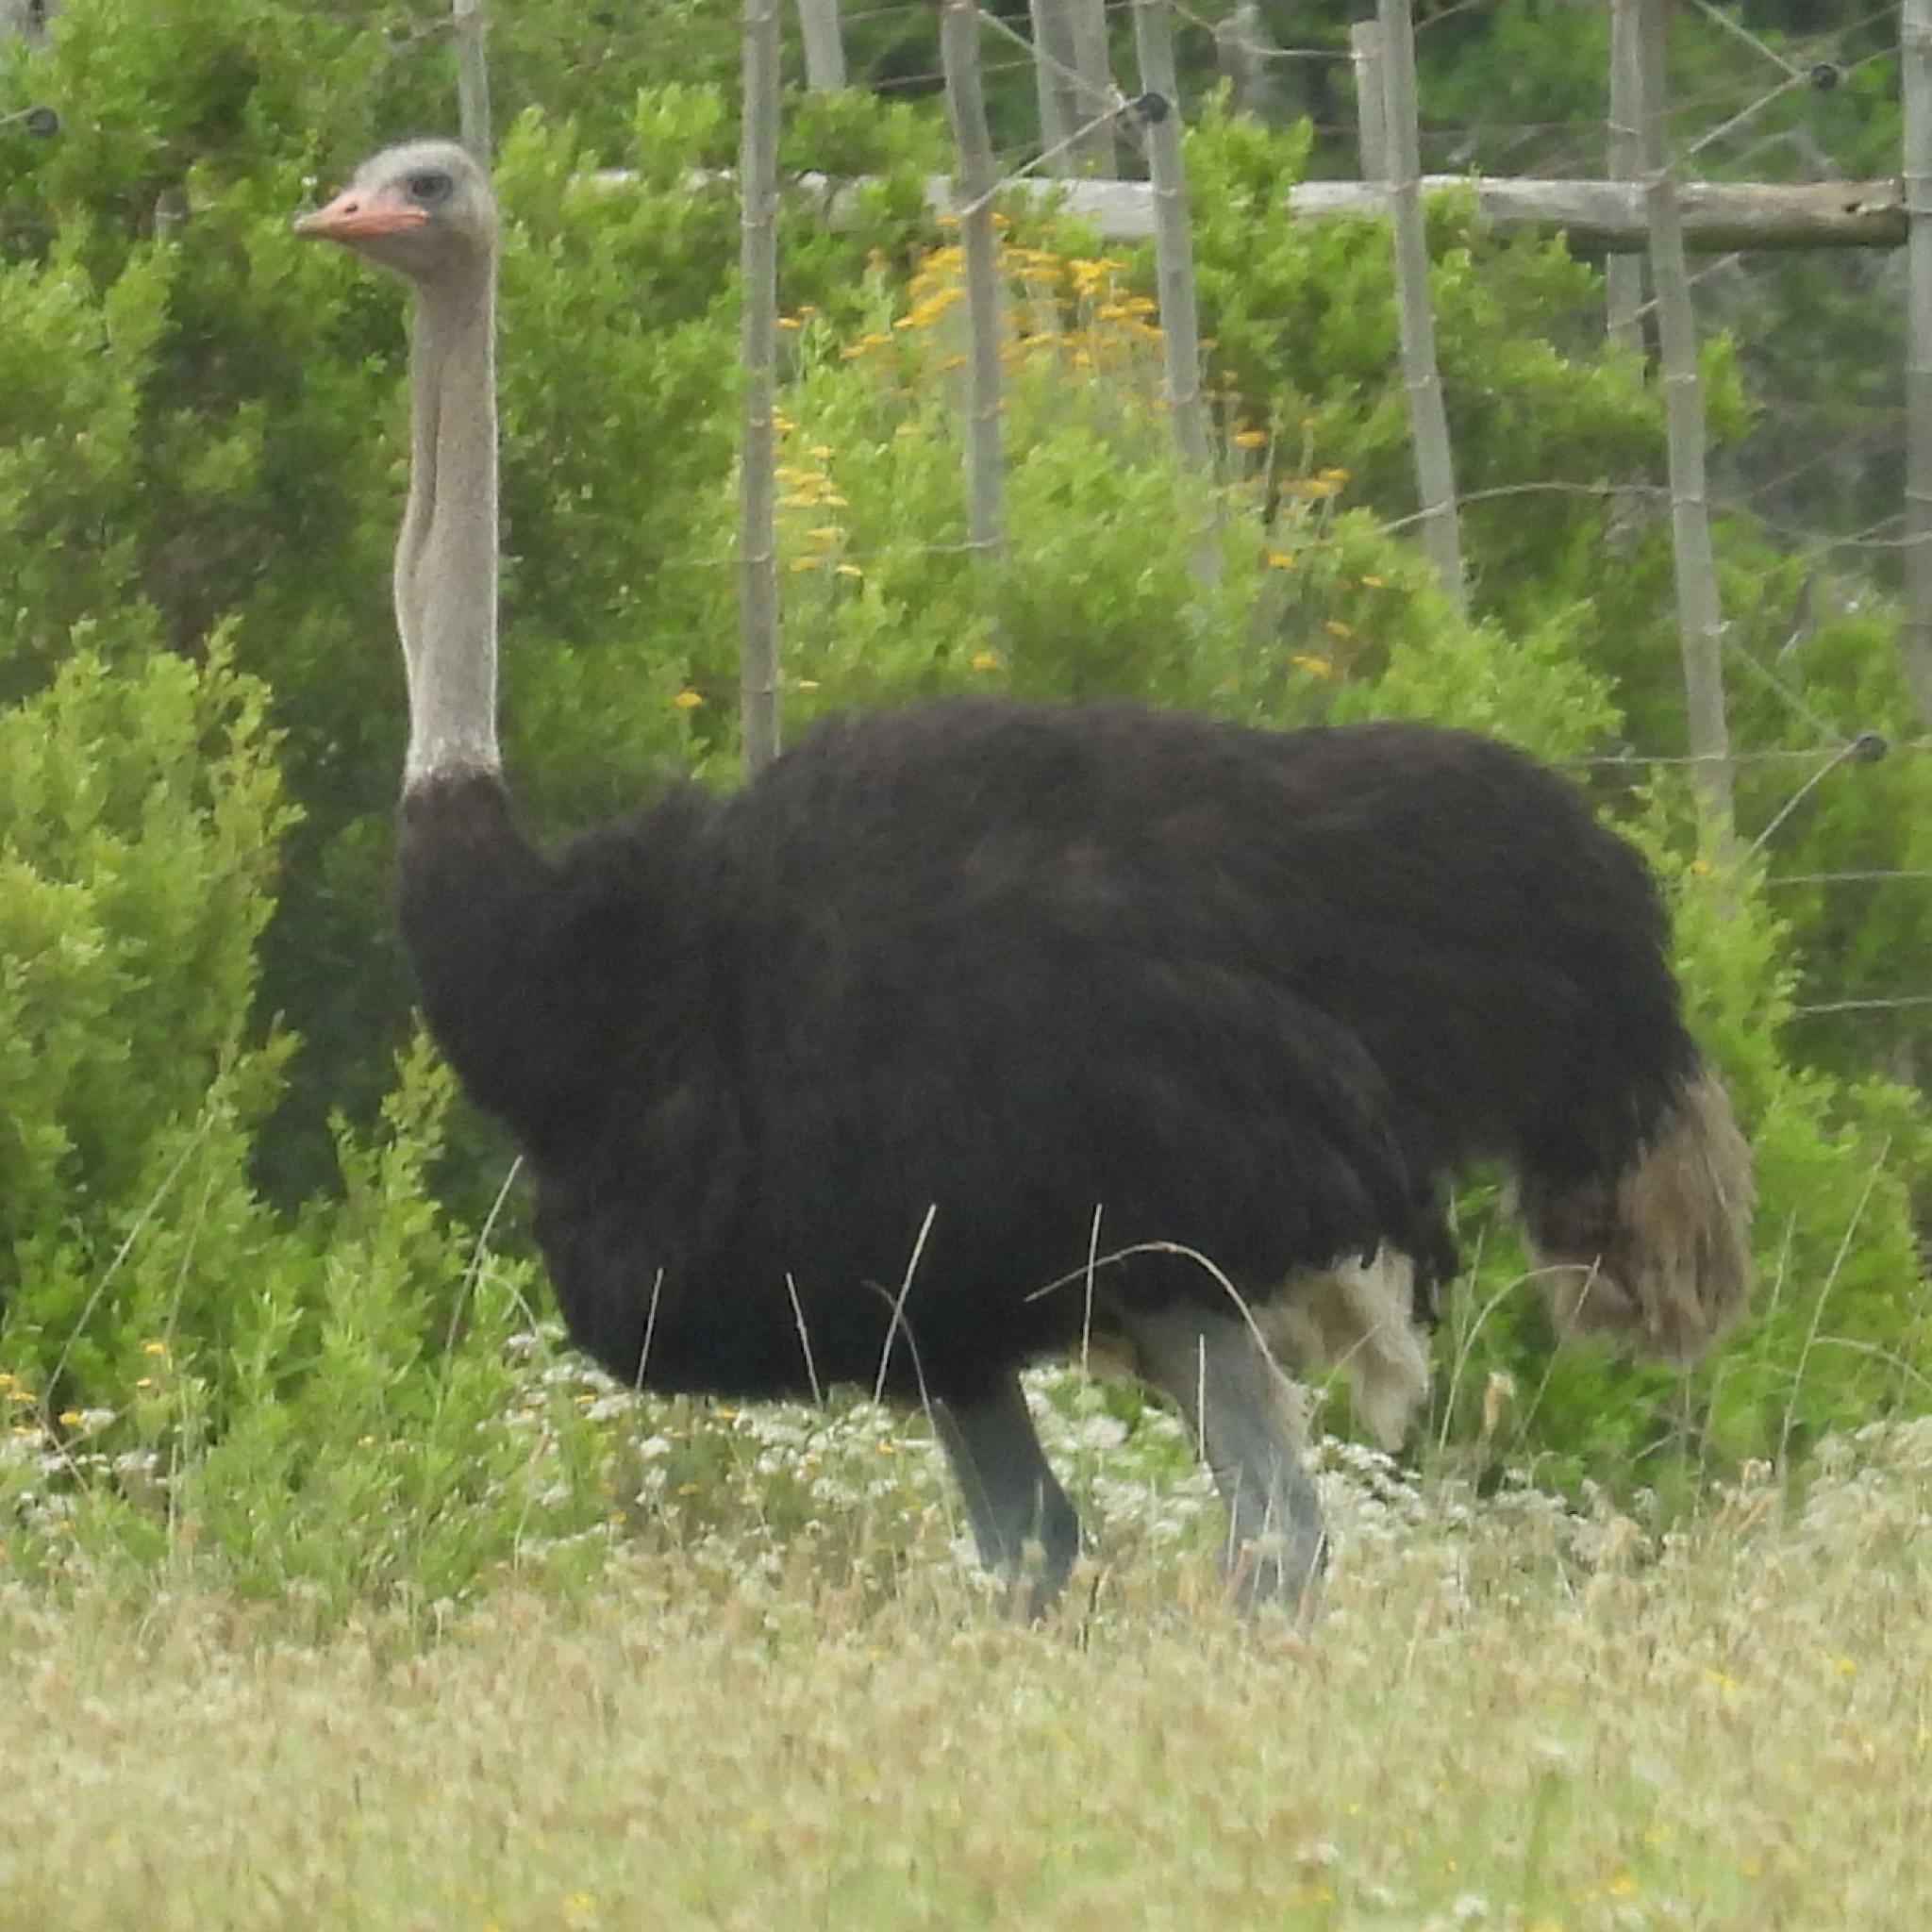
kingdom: Animalia
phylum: Chordata
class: Aves
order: Struthioniformes
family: Struthionidae
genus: Struthio
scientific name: Struthio camelus
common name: Common ostrich
